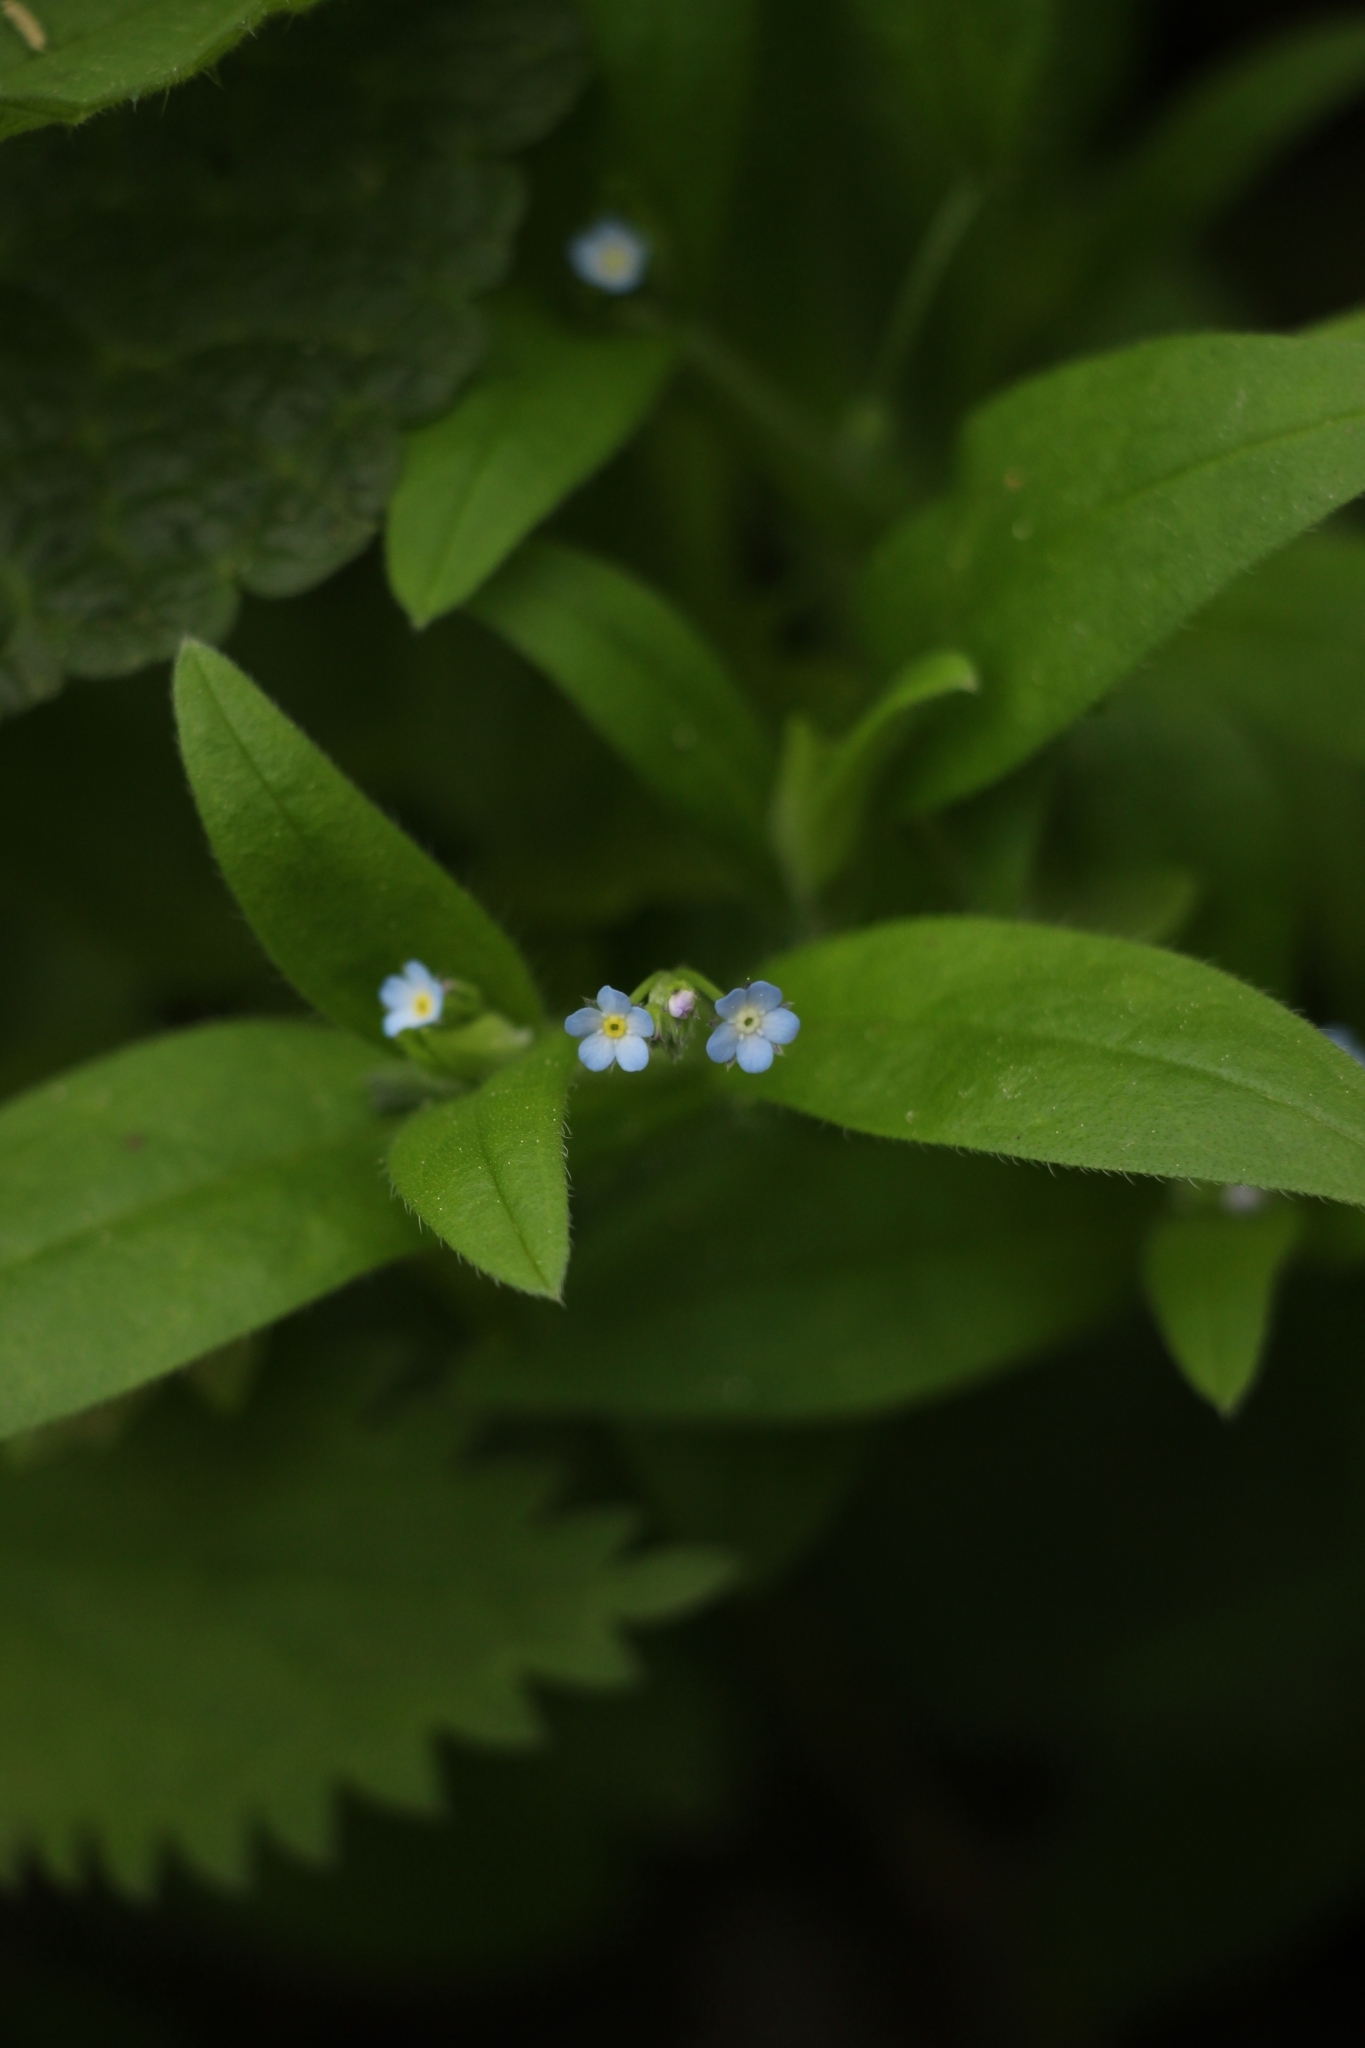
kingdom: Plantae
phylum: Tracheophyta
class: Magnoliopsida
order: Boraginales
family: Boraginaceae
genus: Myosotis
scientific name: Myosotis sparsiflora
